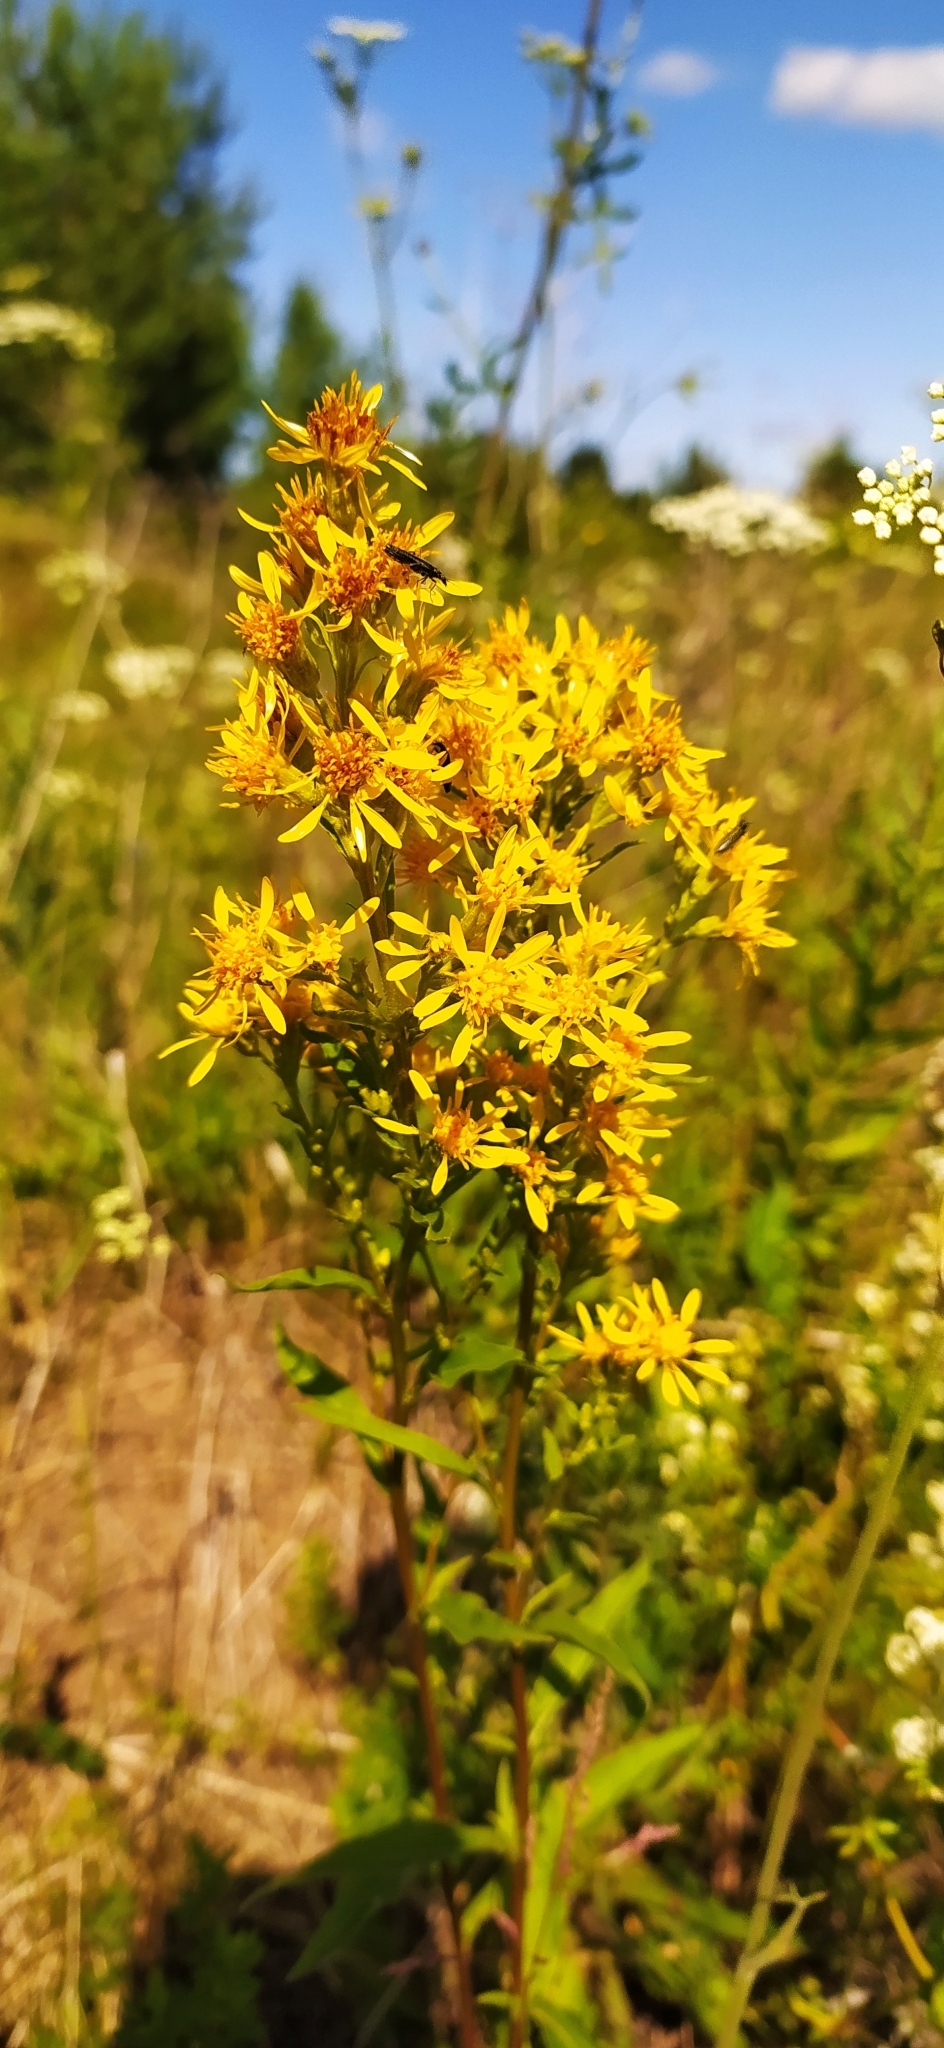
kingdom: Plantae
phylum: Tracheophyta
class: Magnoliopsida
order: Asterales
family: Asteraceae
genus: Solidago
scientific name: Solidago virgaurea
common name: Goldenrod
